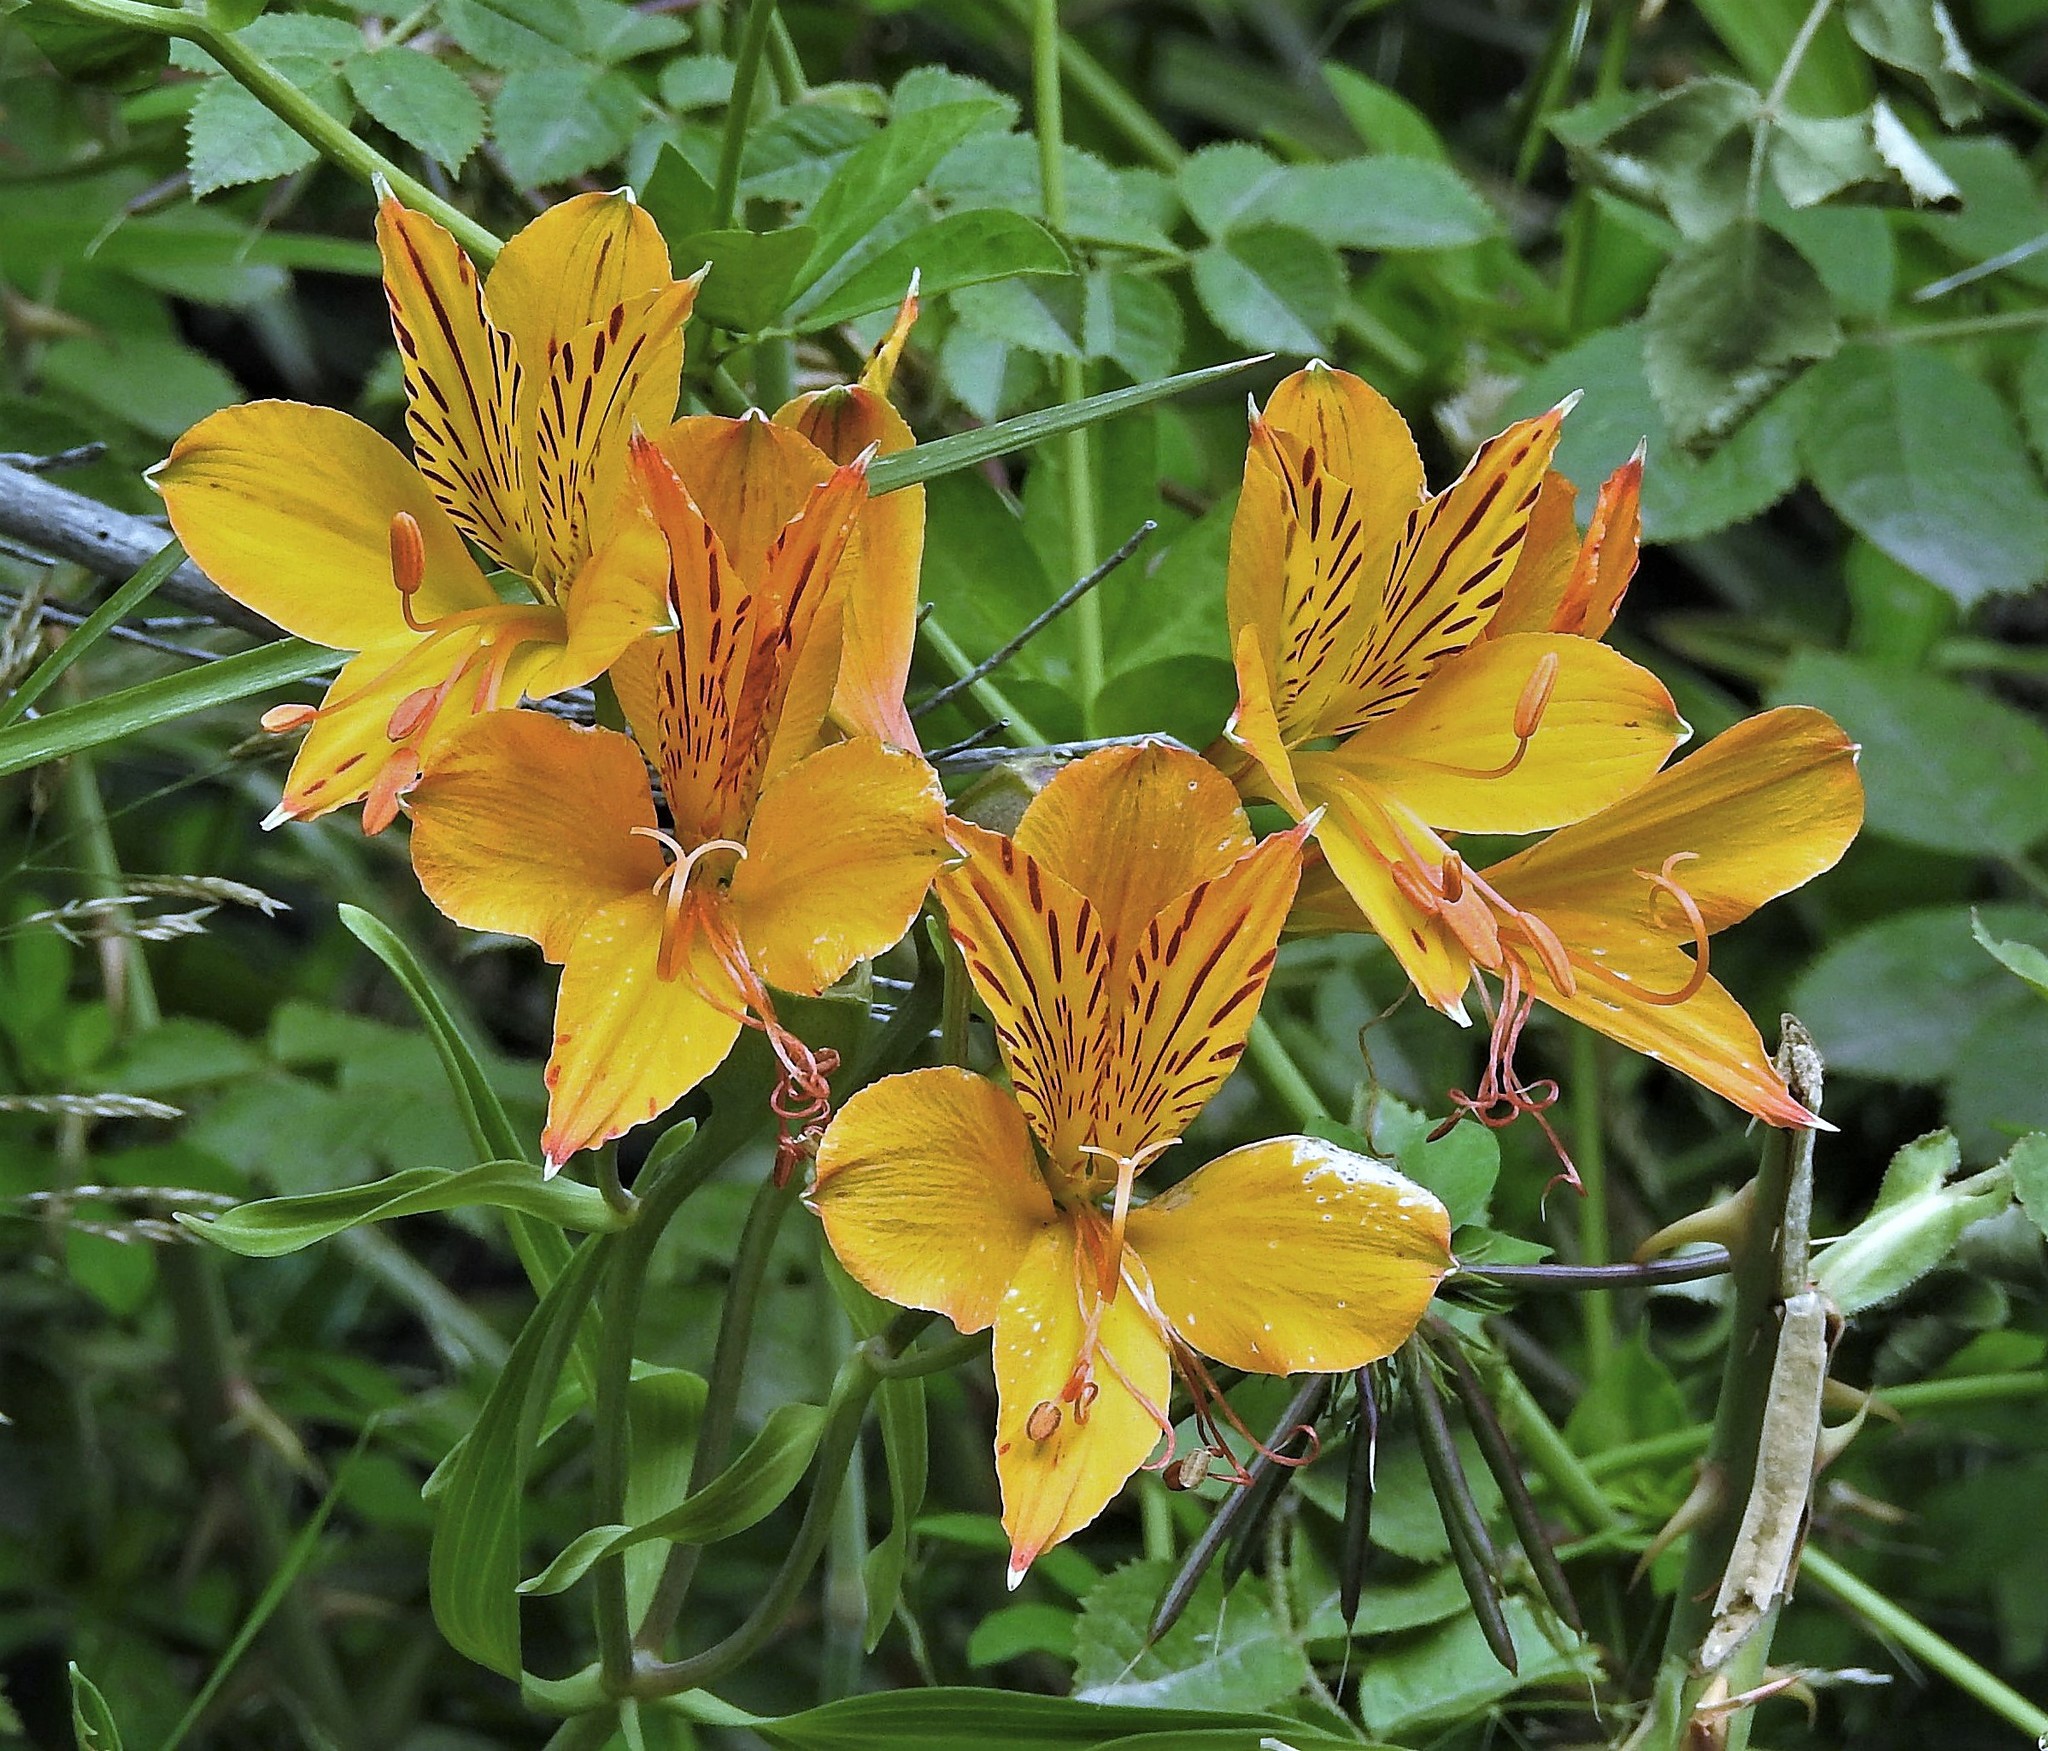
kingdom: Plantae
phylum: Tracheophyta
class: Liliopsida
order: Liliales
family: Alstroemeriaceae
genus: Alstroemeria
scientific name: Alstroemeria aurea
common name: Peruvian lily
